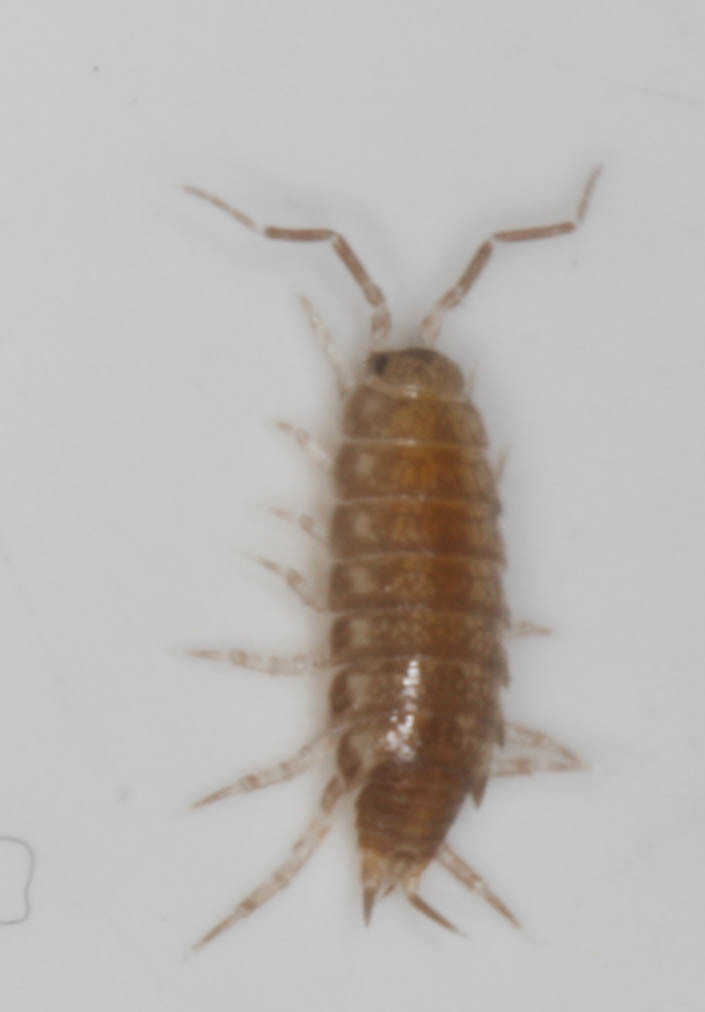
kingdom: Animalia
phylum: Arthropoda
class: Malacostraca
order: Isopoda
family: Halophilosciidae
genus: Littorophiloscia
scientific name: Littorophiloscia richardsonae
